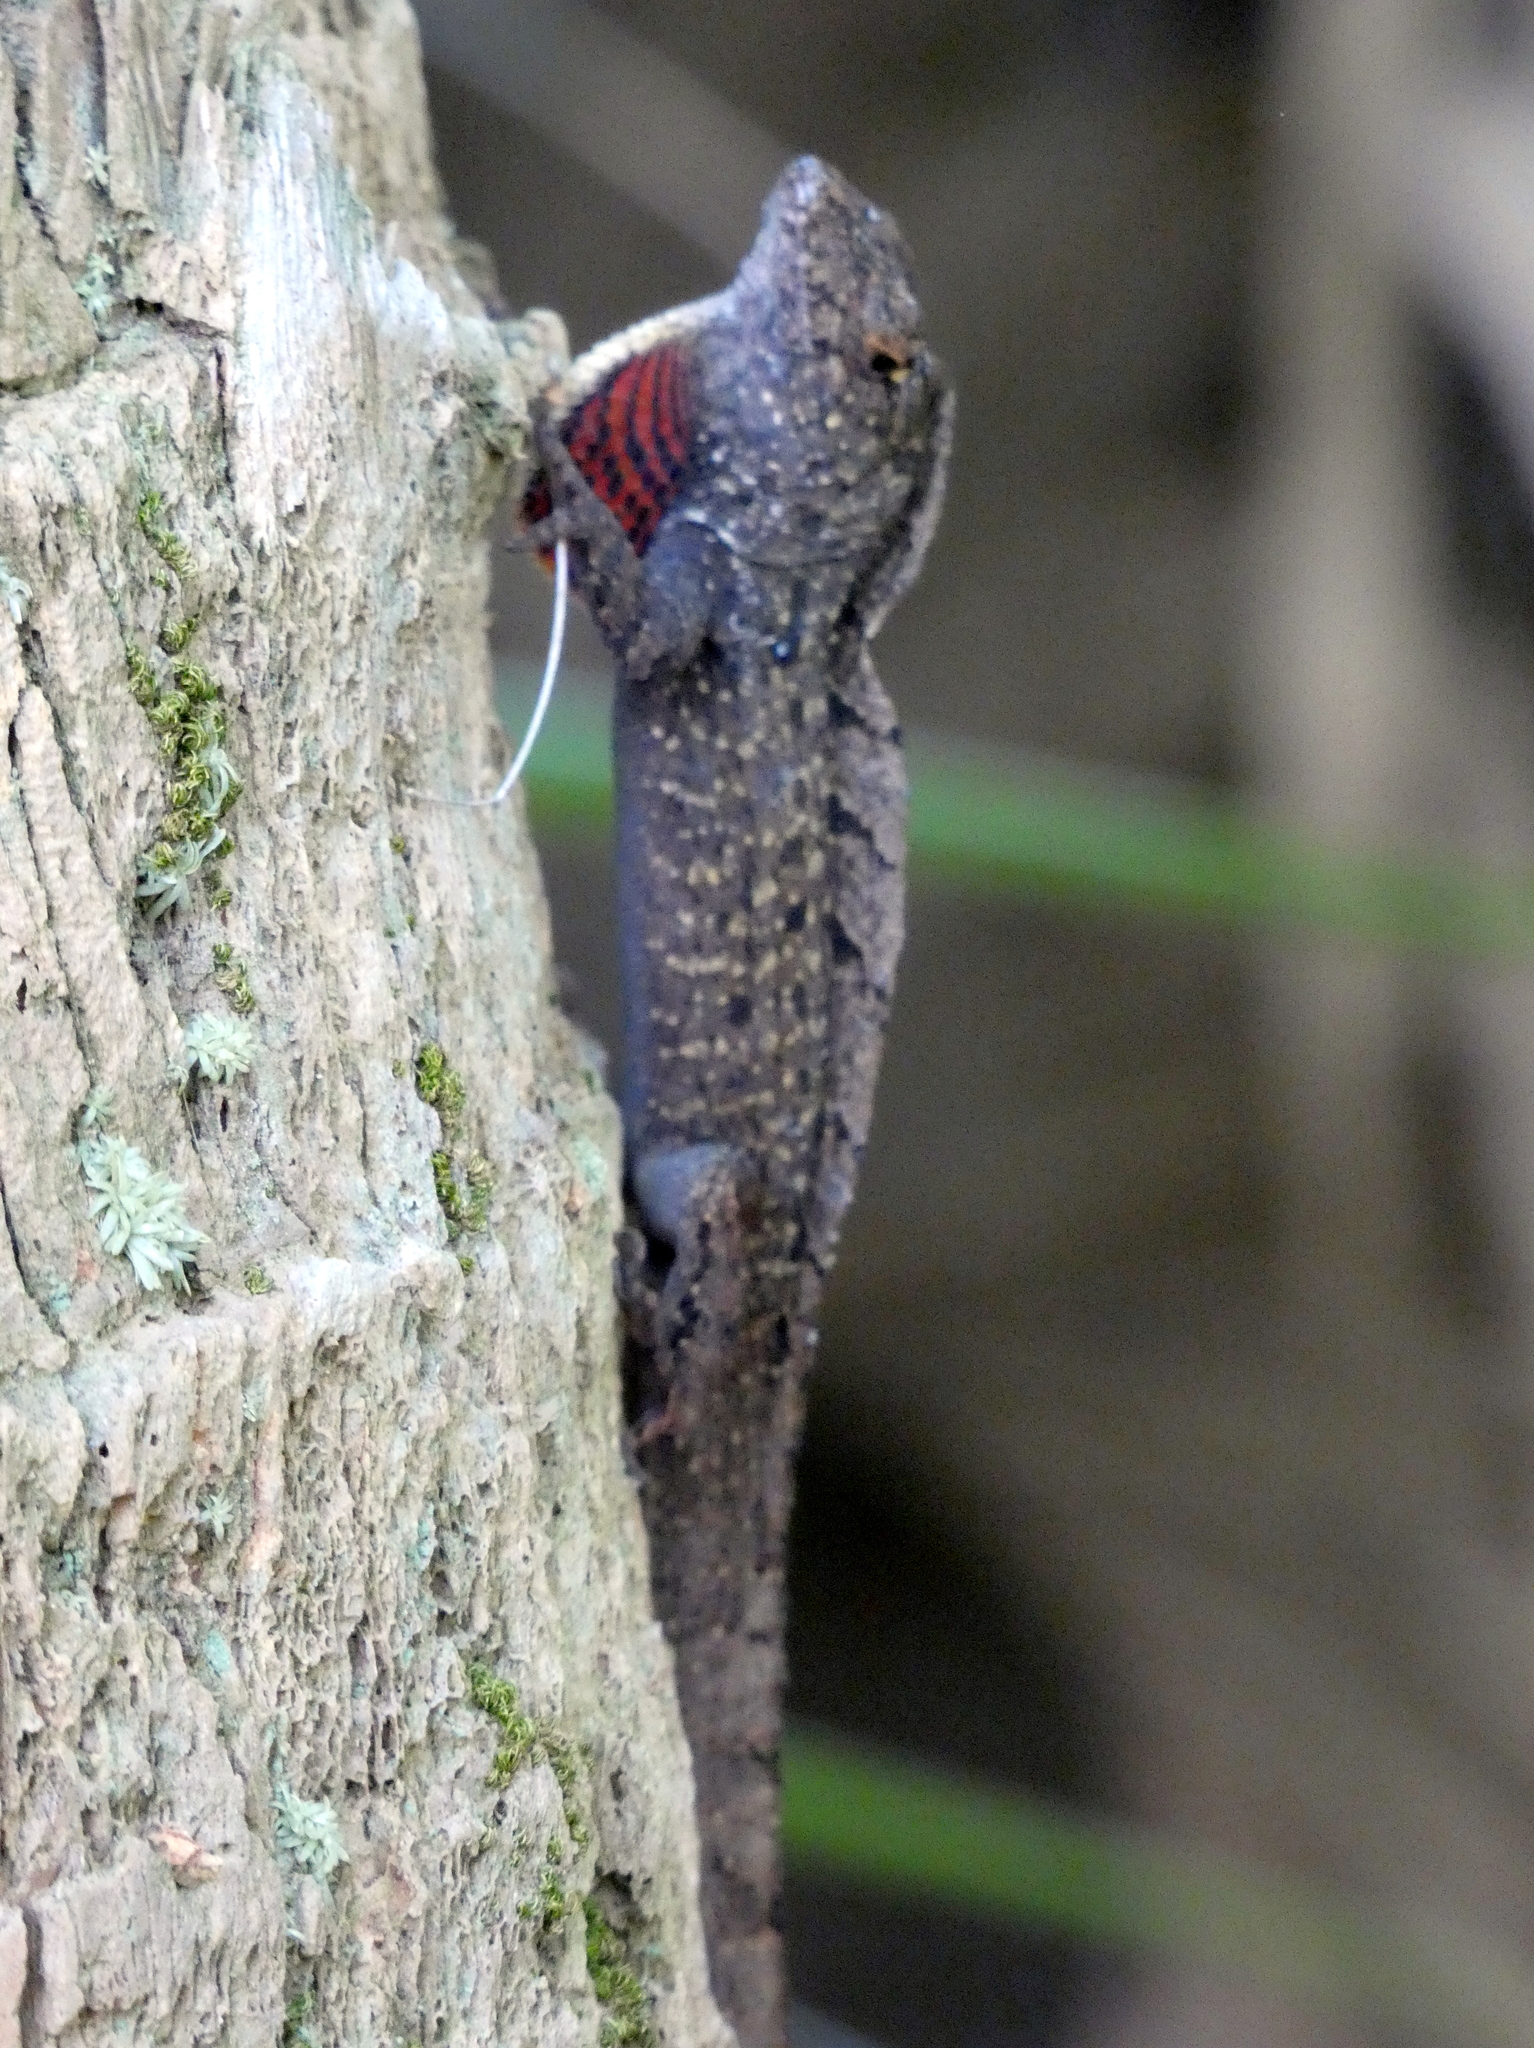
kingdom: Animalia
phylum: Chordata
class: Squamata
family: Dactyloidae
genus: Anolis
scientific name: Anolis sagrei
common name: Brown anole
